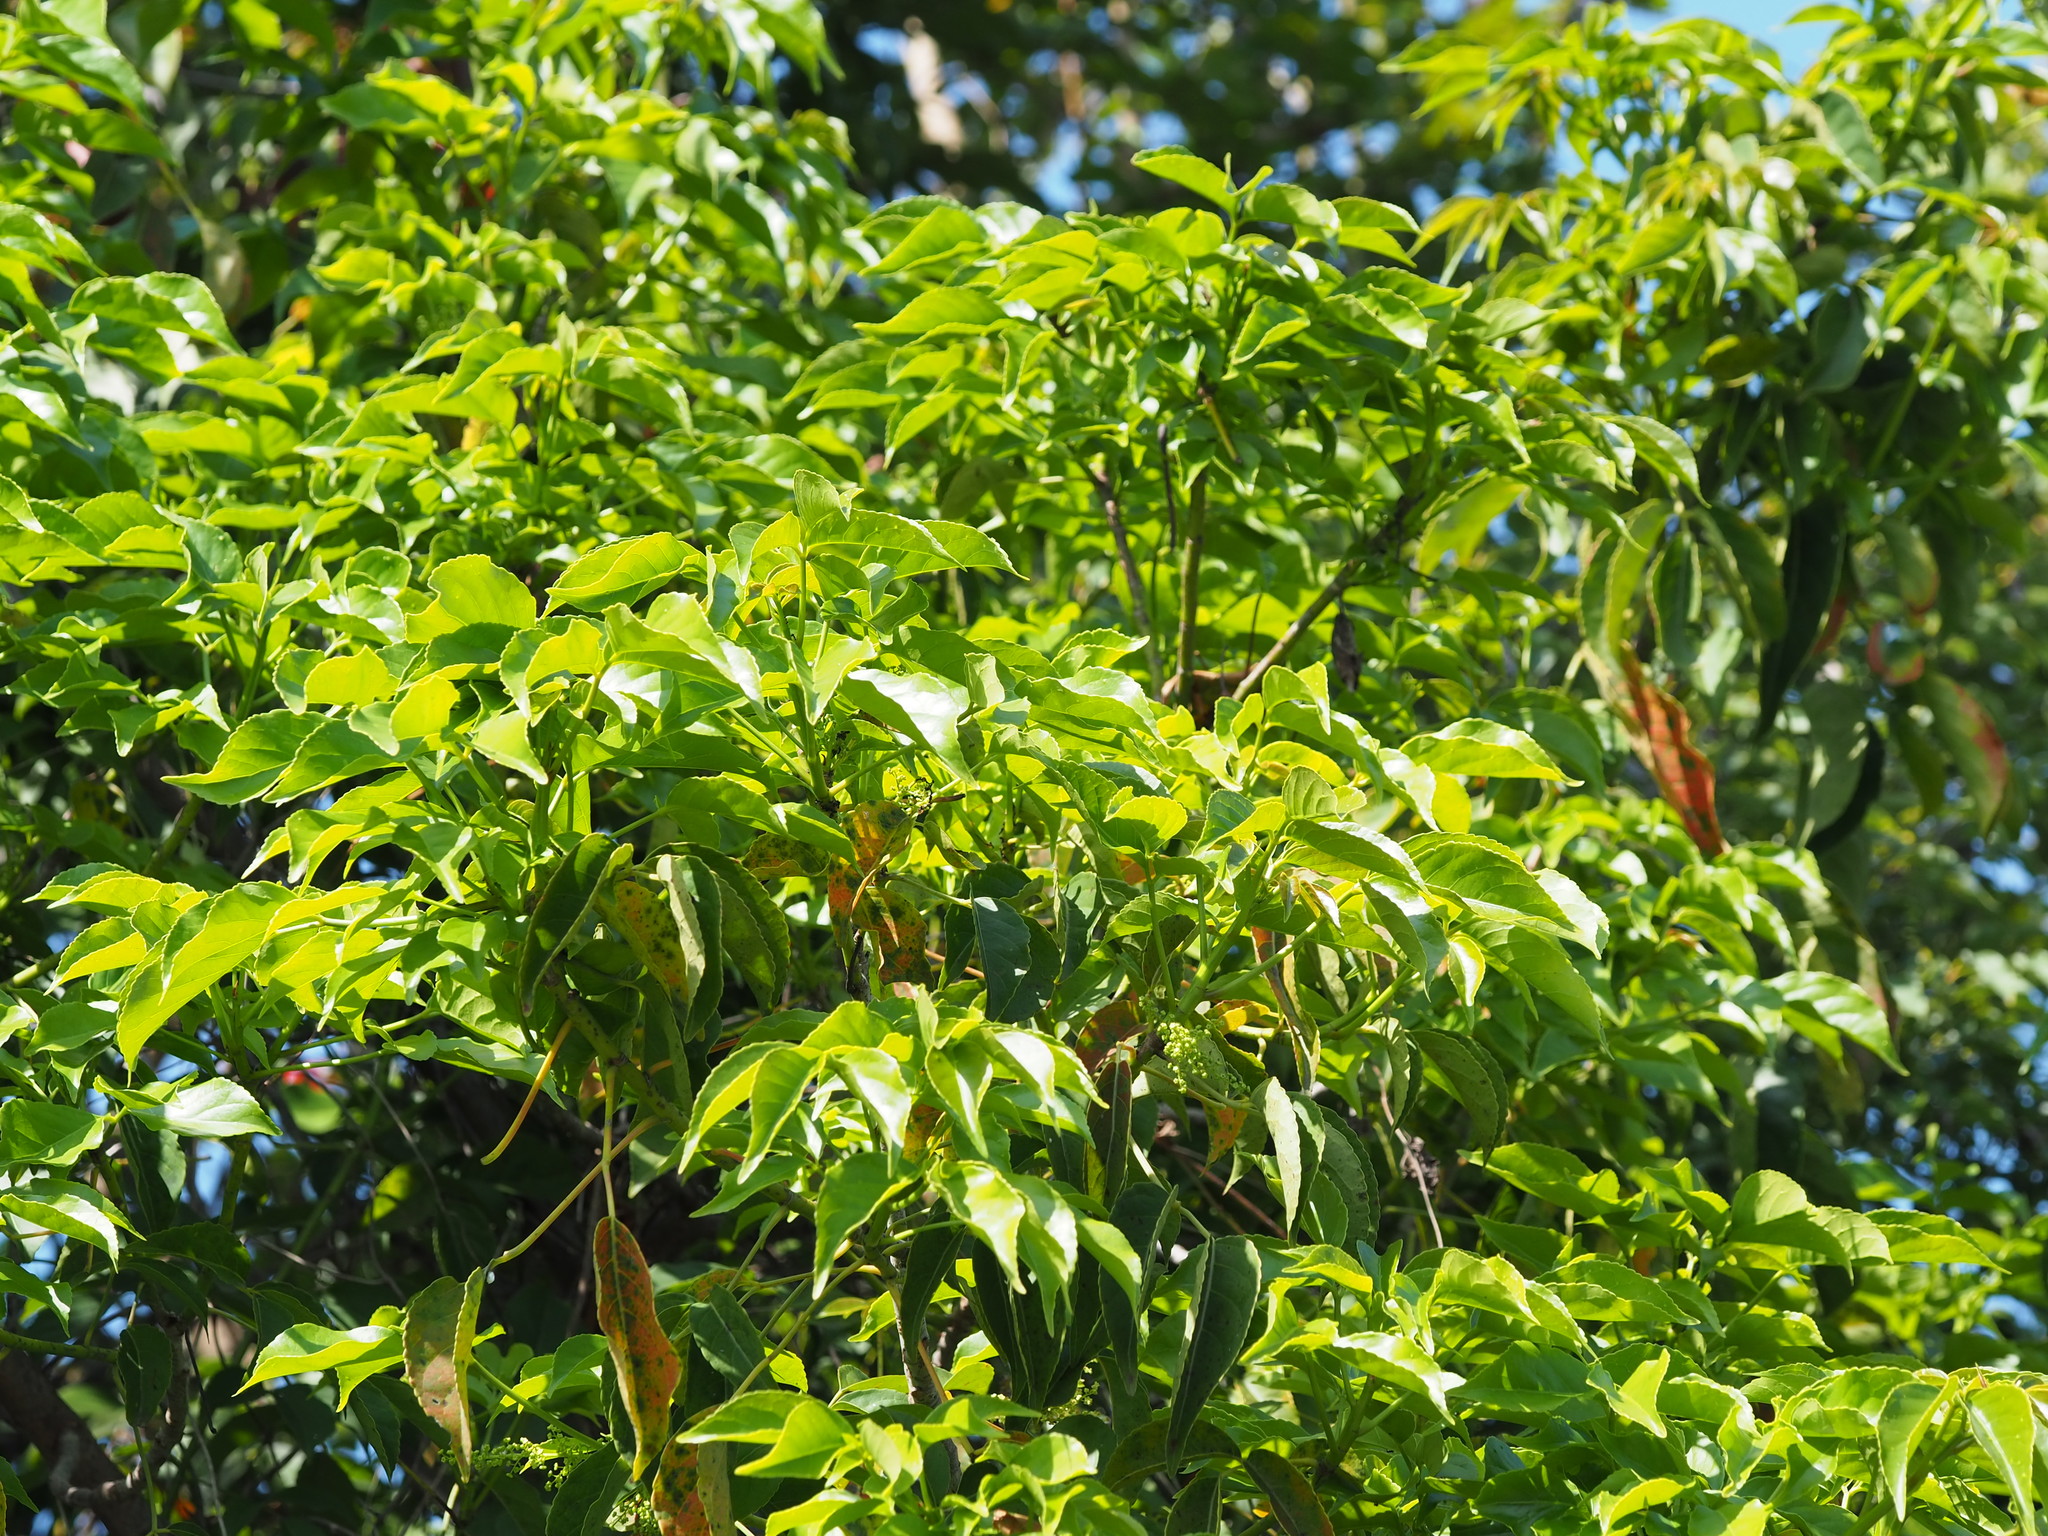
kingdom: Plantae
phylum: Tracheophyta
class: Magnoliopsida
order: Malpighiales
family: Phyllanthaceae
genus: Bischofia
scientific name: Bischofia javanica
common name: Javanese bishopwood
